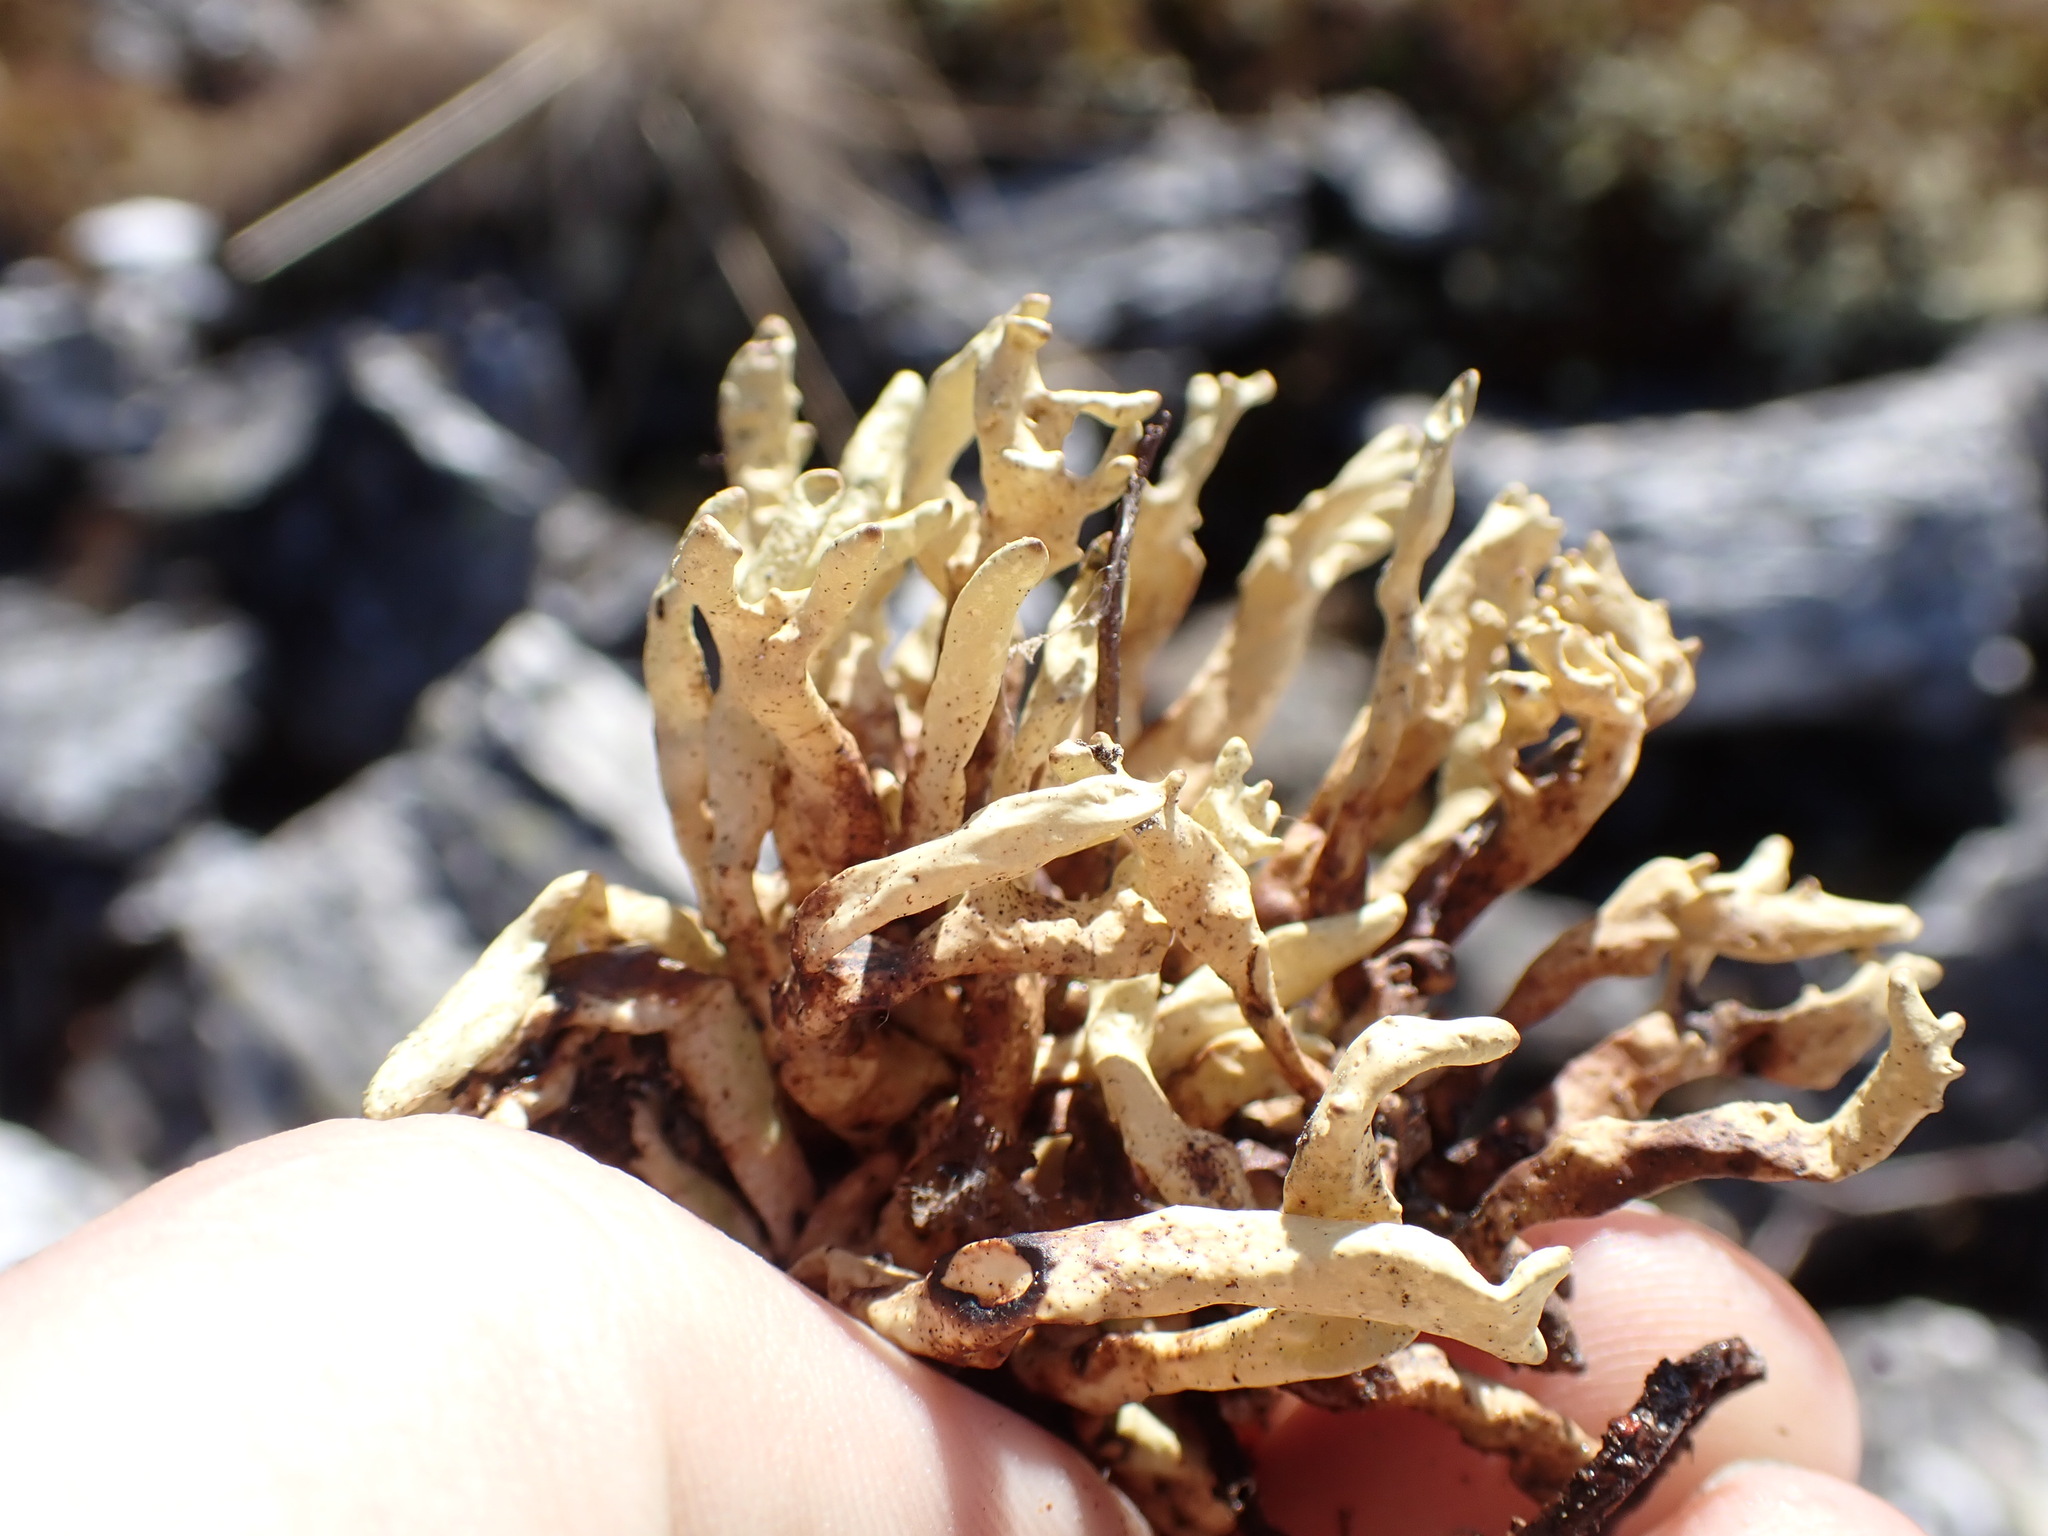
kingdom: Fungi
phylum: Ascomycota
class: Lecanoromycetes
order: Lecanorales
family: Parmeliaceae
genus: Dactylina
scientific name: Dactylina arctica
